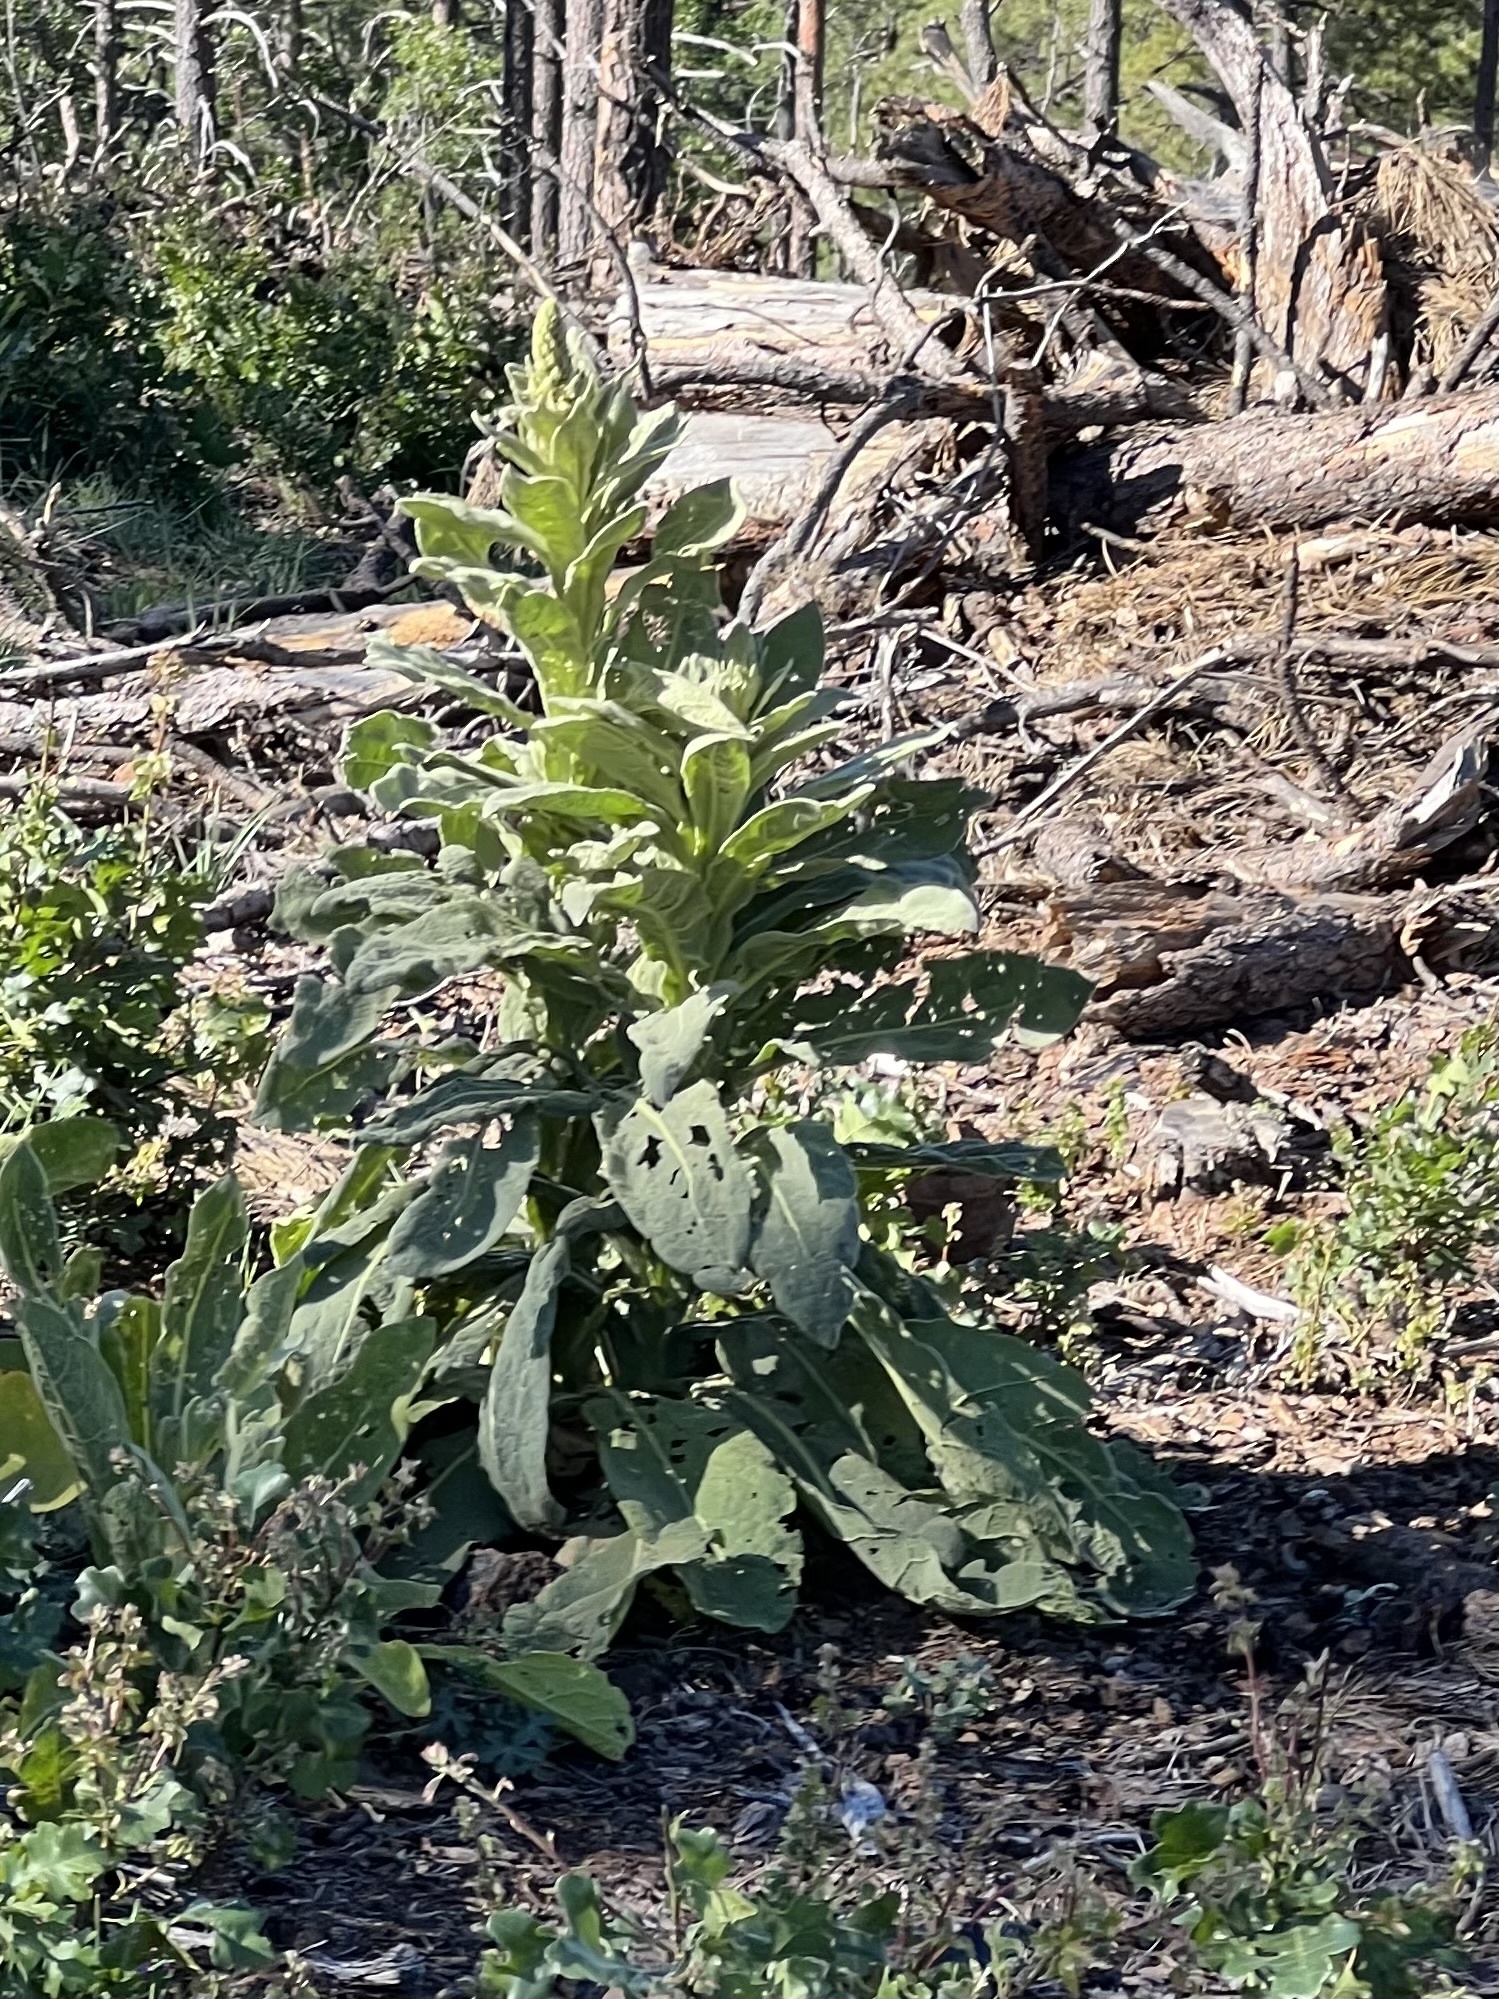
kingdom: Plantae
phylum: Tracheophyta
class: Magnoliopsida
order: Lamiales
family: Scrophulariaceae
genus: Verbascum
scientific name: Verbascum thapsus
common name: Common mullein
